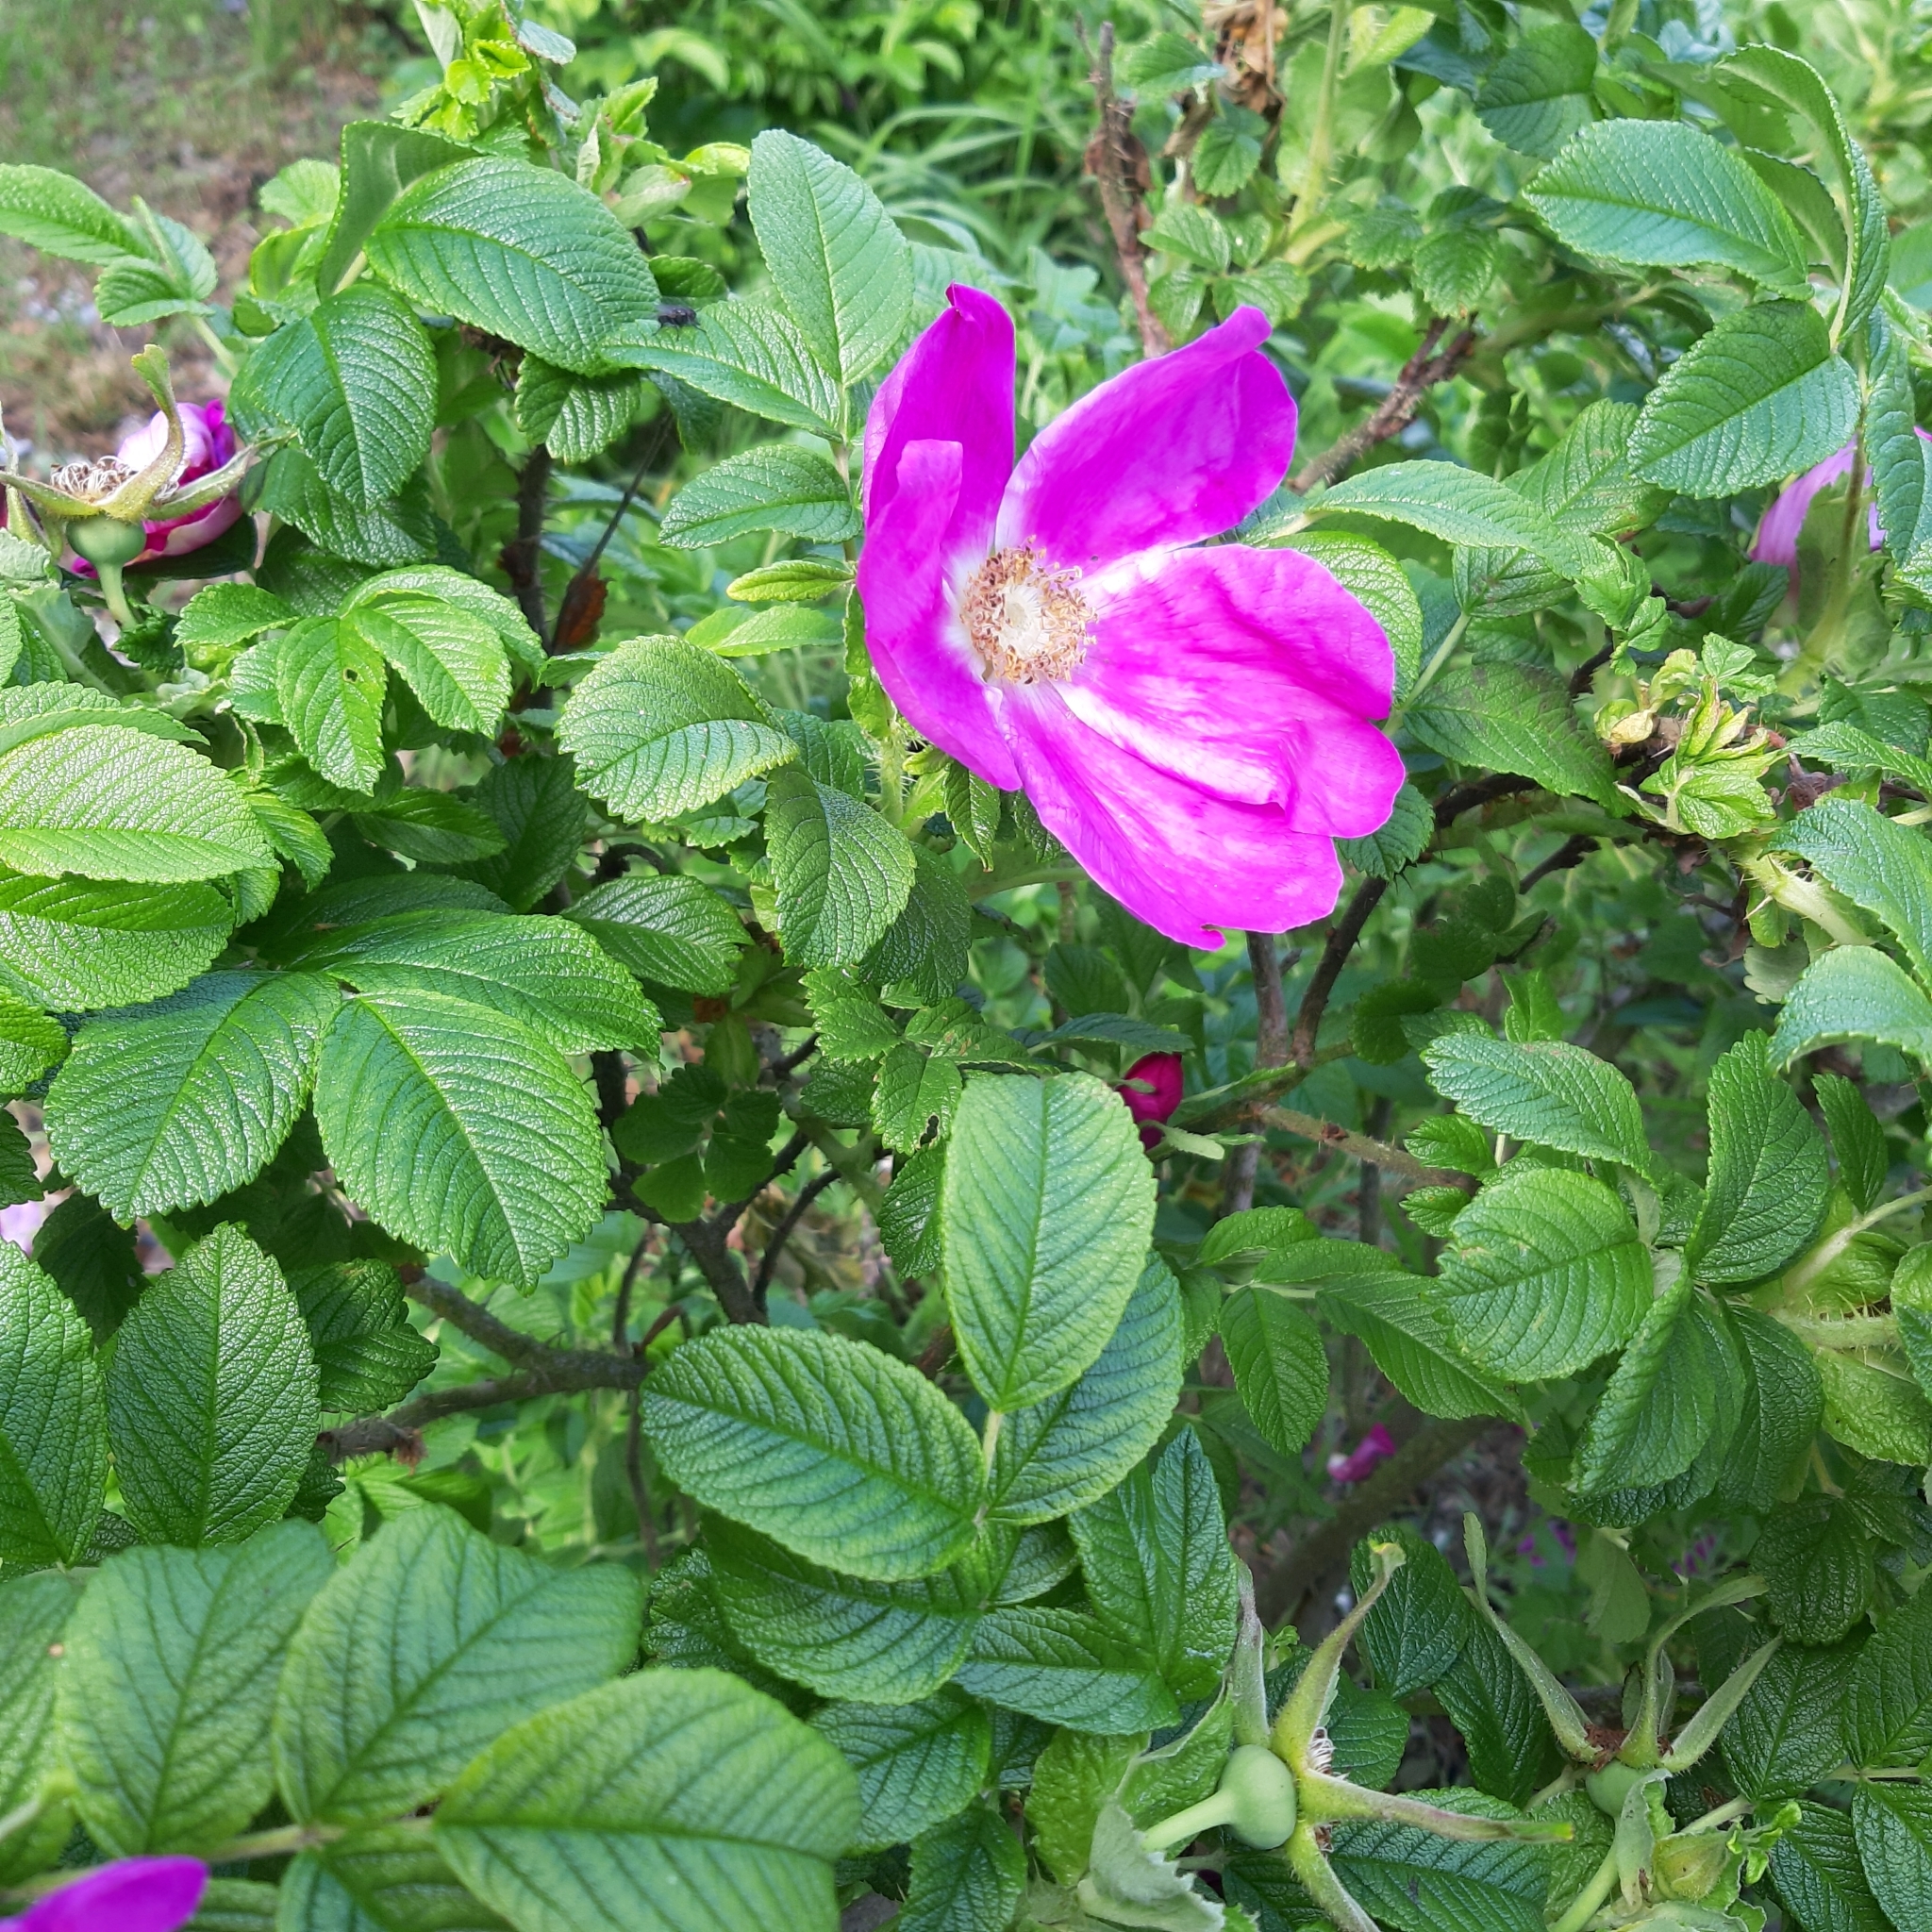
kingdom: Plantae
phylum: Tracheophyta
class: Magnoliopsida
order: Rosales
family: Rosaceae
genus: Rosa
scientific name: Rosa rugosa
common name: Japanese rose
